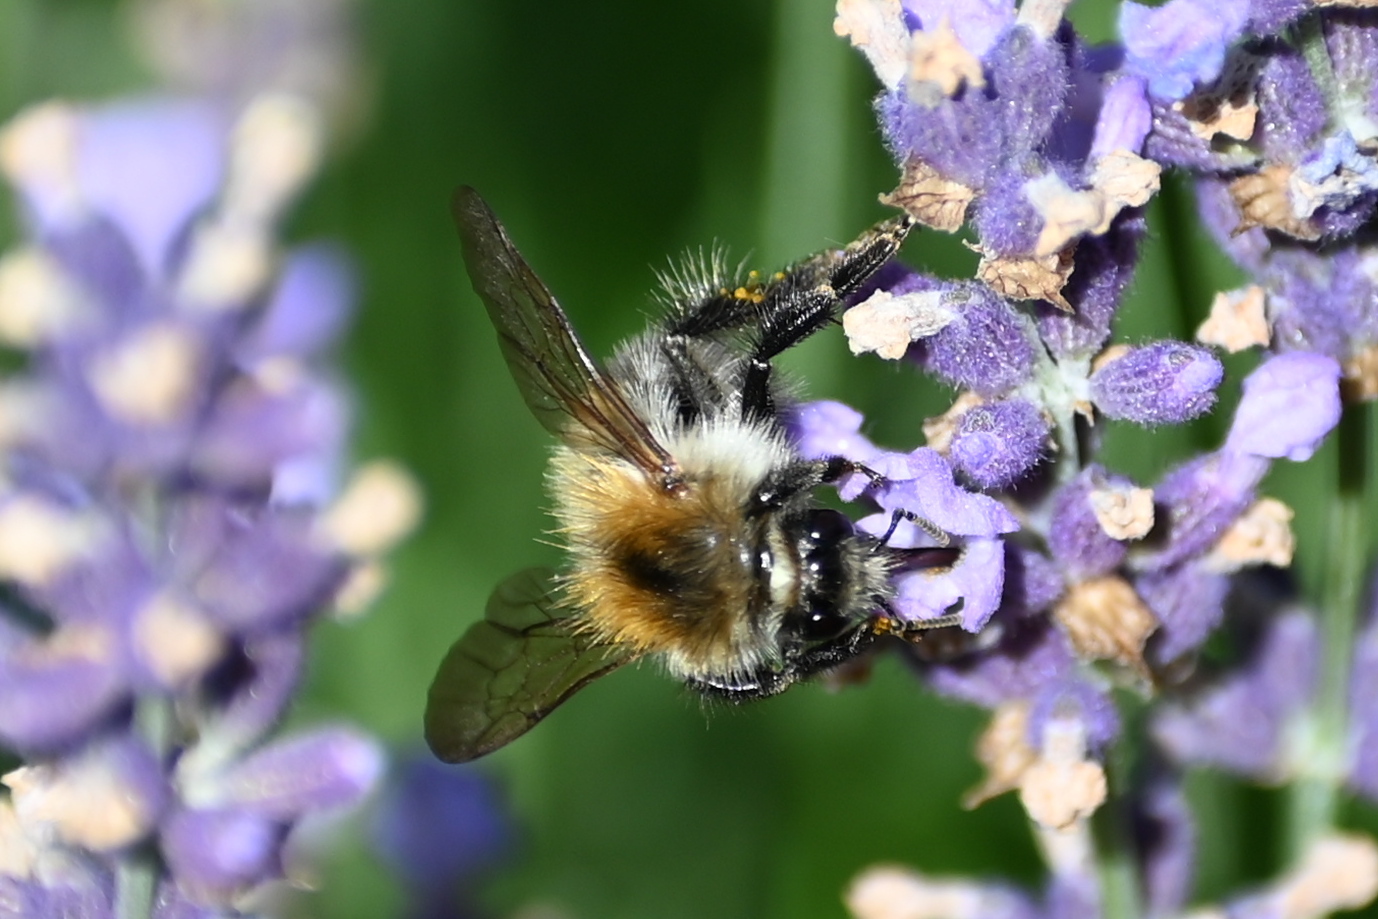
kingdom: Animalia
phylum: Arthropoda
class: Insecta
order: Hymenoptera
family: Apidae
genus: Bombus
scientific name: Bombus pascuorum
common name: Common carder bee
